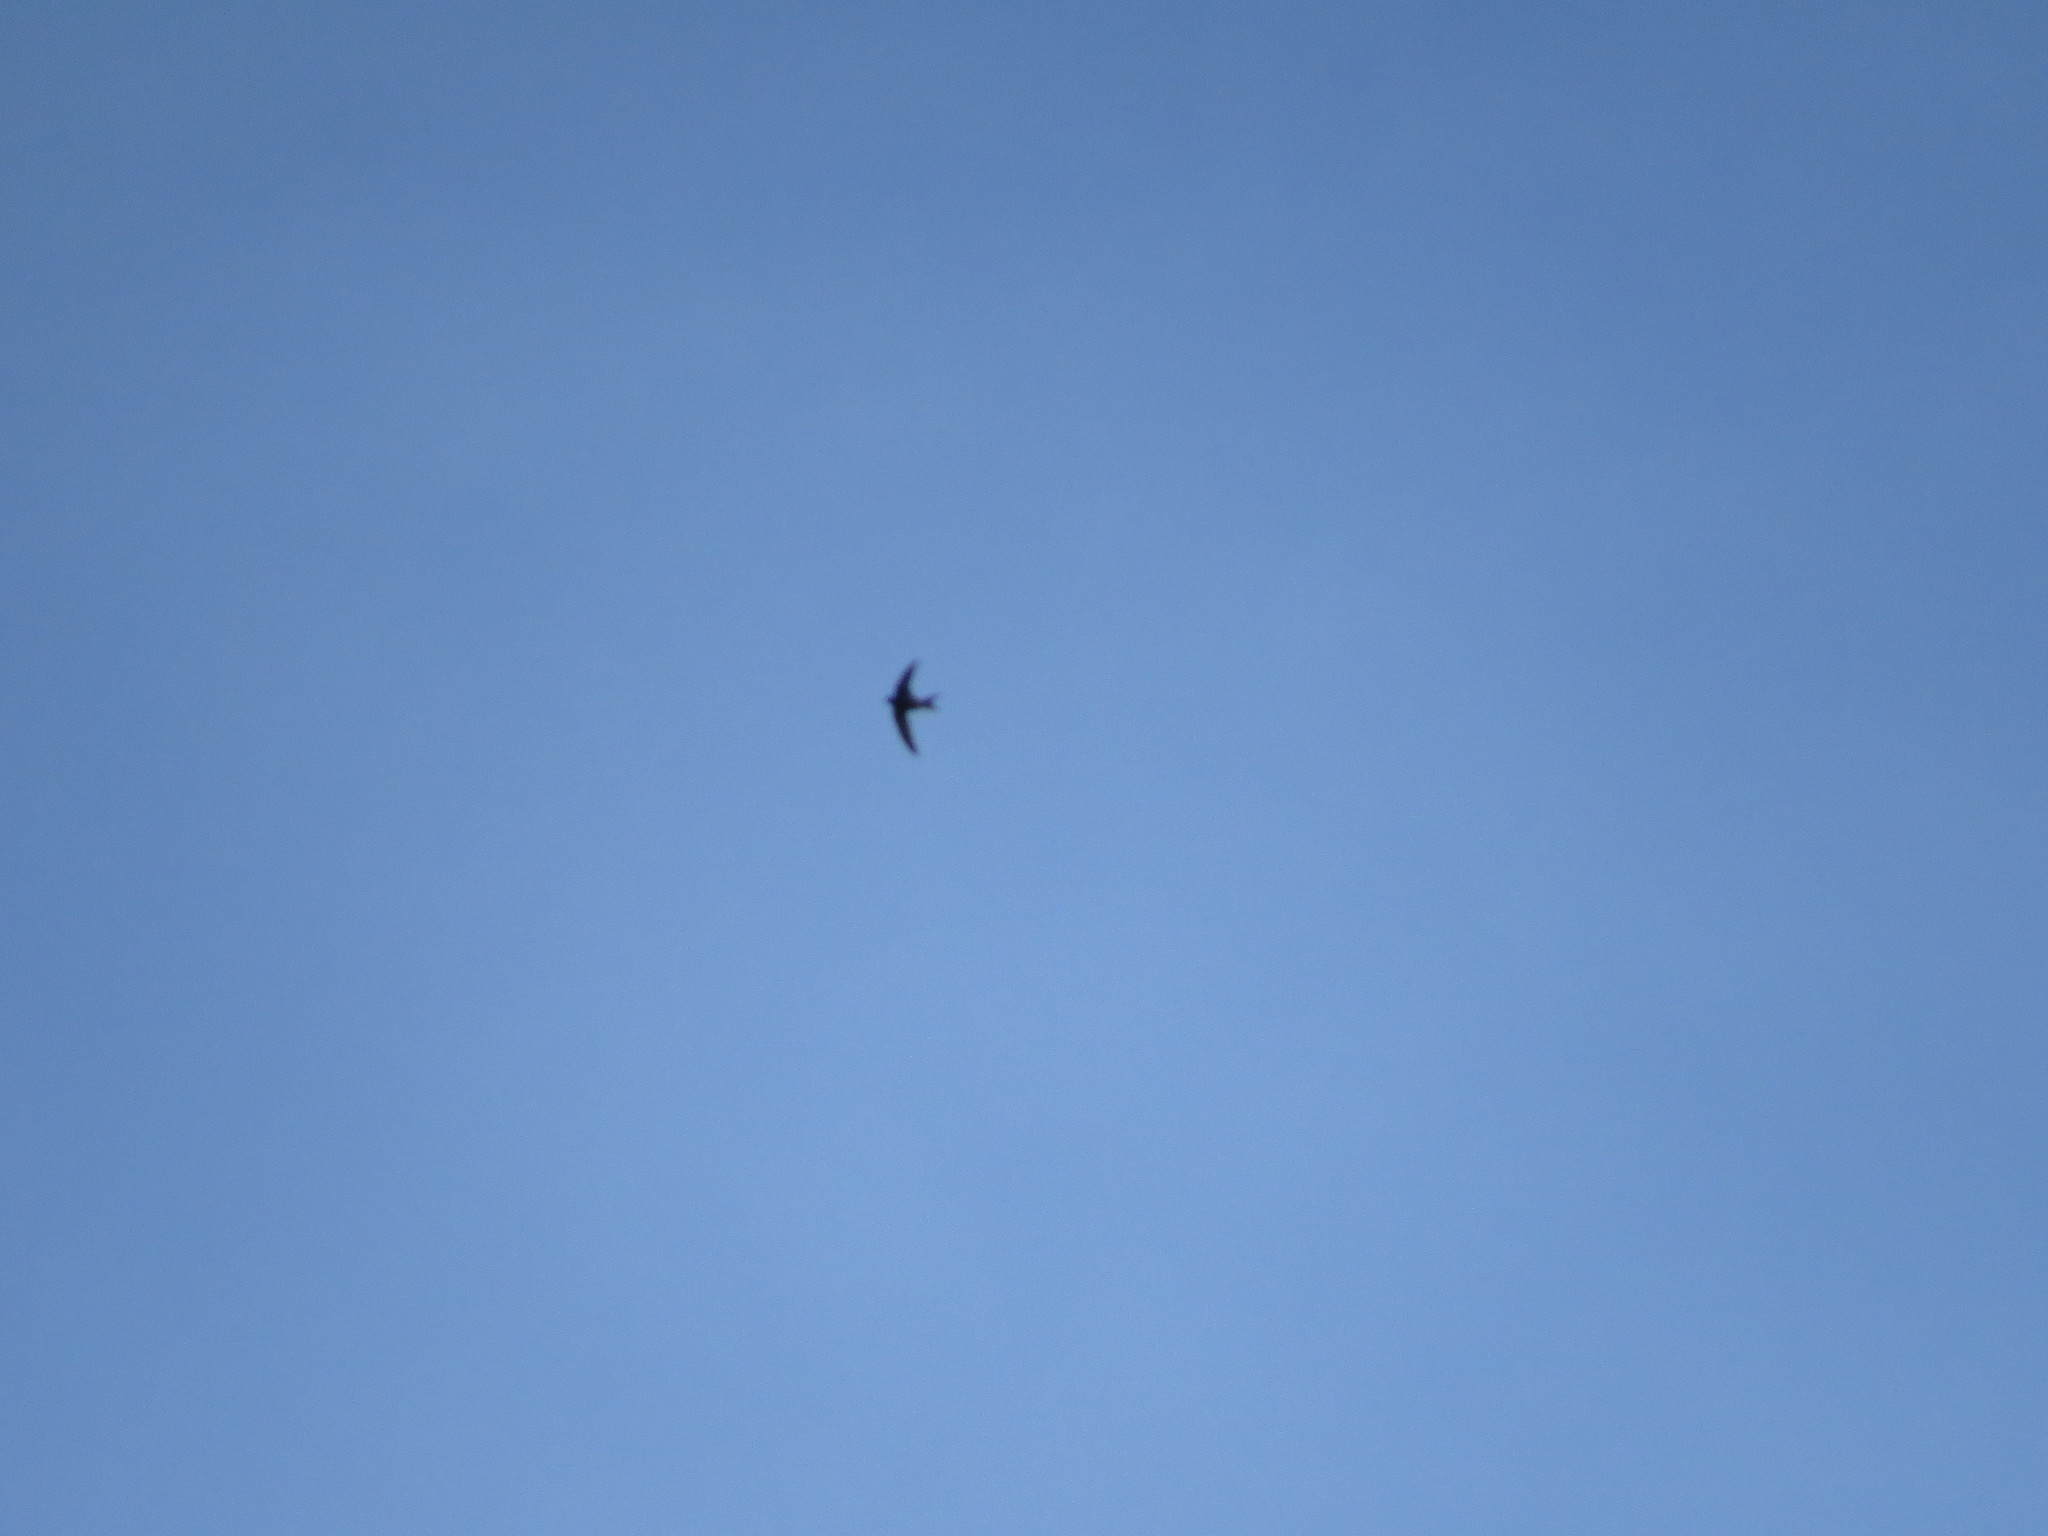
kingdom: Animalia
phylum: Chordata
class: Aves
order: Apodiformes
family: Apodidae
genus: Apus
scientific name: Apus apus
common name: Common swift
